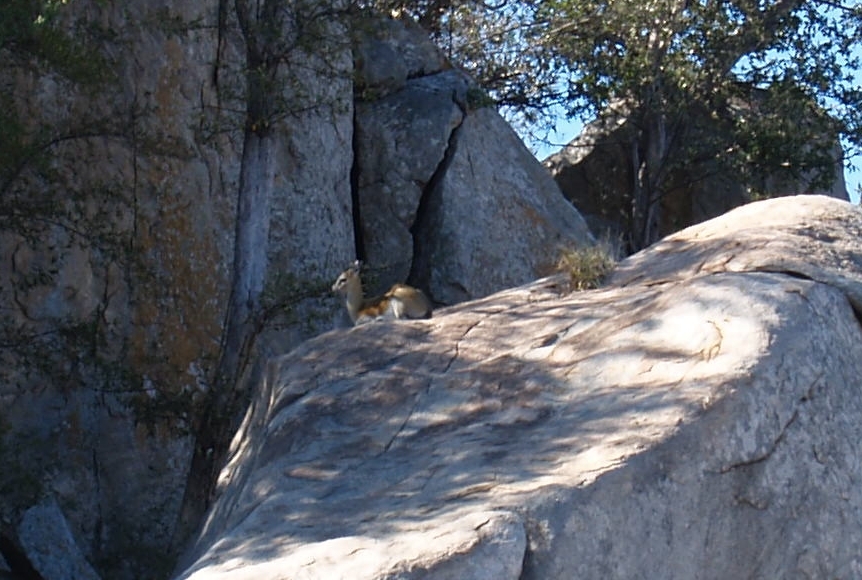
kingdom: Animalia
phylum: Chordata
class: Mammalia
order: Artiodactyla
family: Bovidae
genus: Oreotragus
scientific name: Oreotragus oreotragus
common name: Klipspringer
